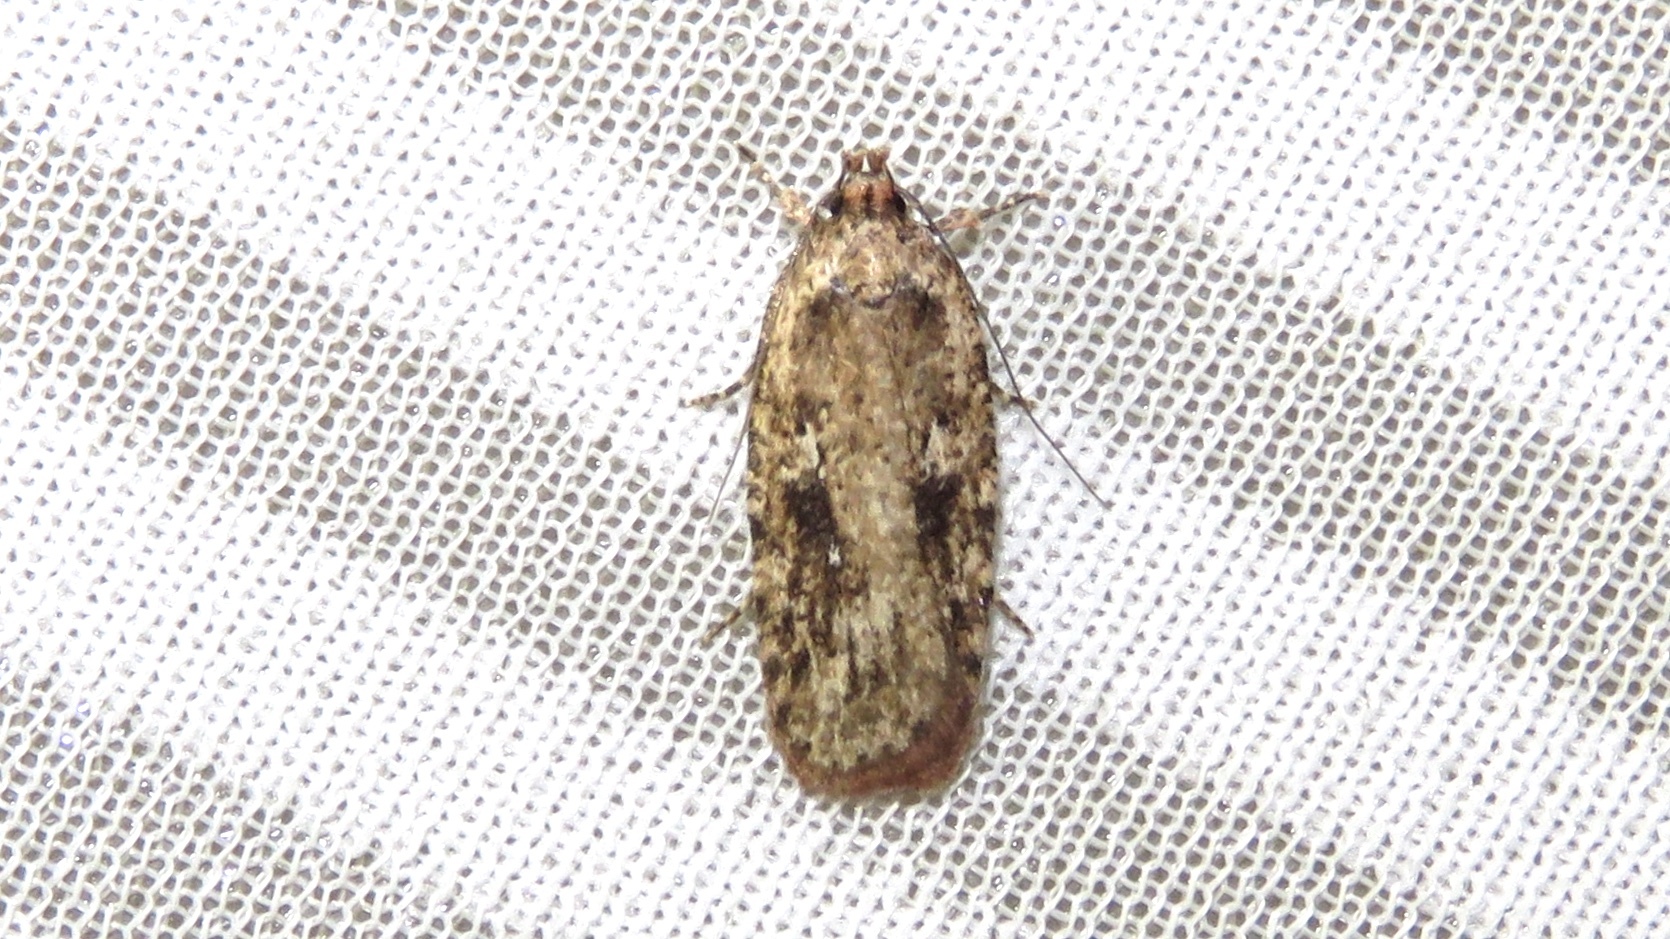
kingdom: Animalia
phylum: Arthropoda
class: Insecta
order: Lepidoptera
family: Depressariidae
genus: Agonopterix
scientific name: Agonopterix pulvipennella
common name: Goldenrod leafffolder
